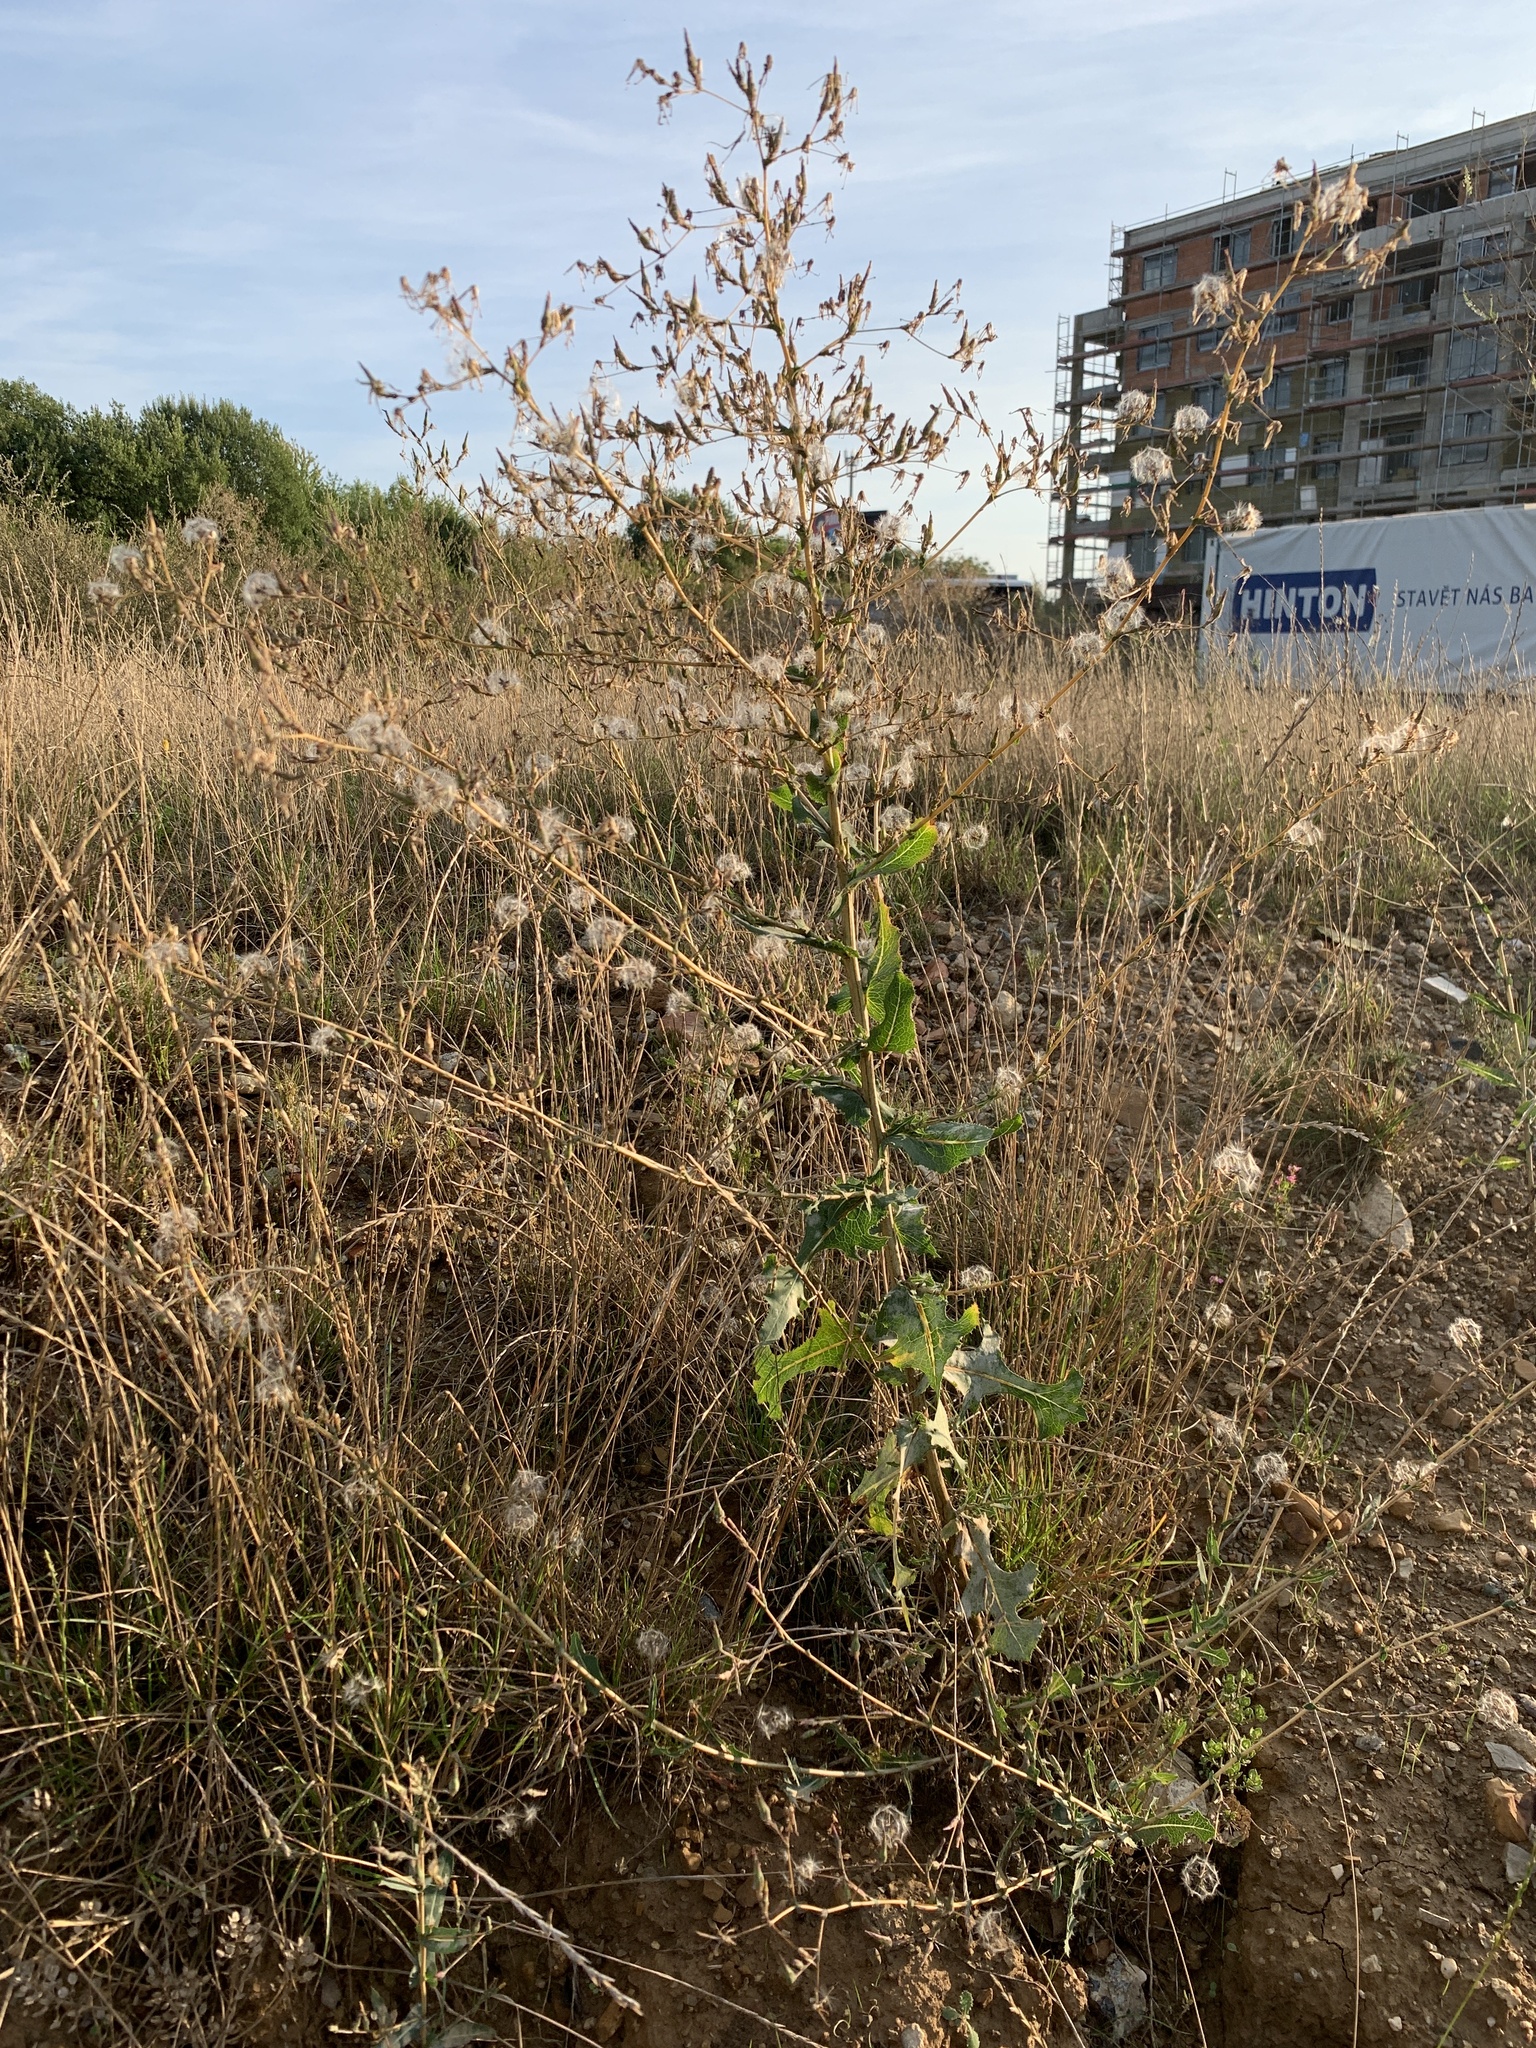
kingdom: Plantae
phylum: Tracheophyta
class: Magnoliopsida
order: Asterales
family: Asteraceae
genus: Lactuca
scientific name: Lactuca serriola
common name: Prickly lettuce
